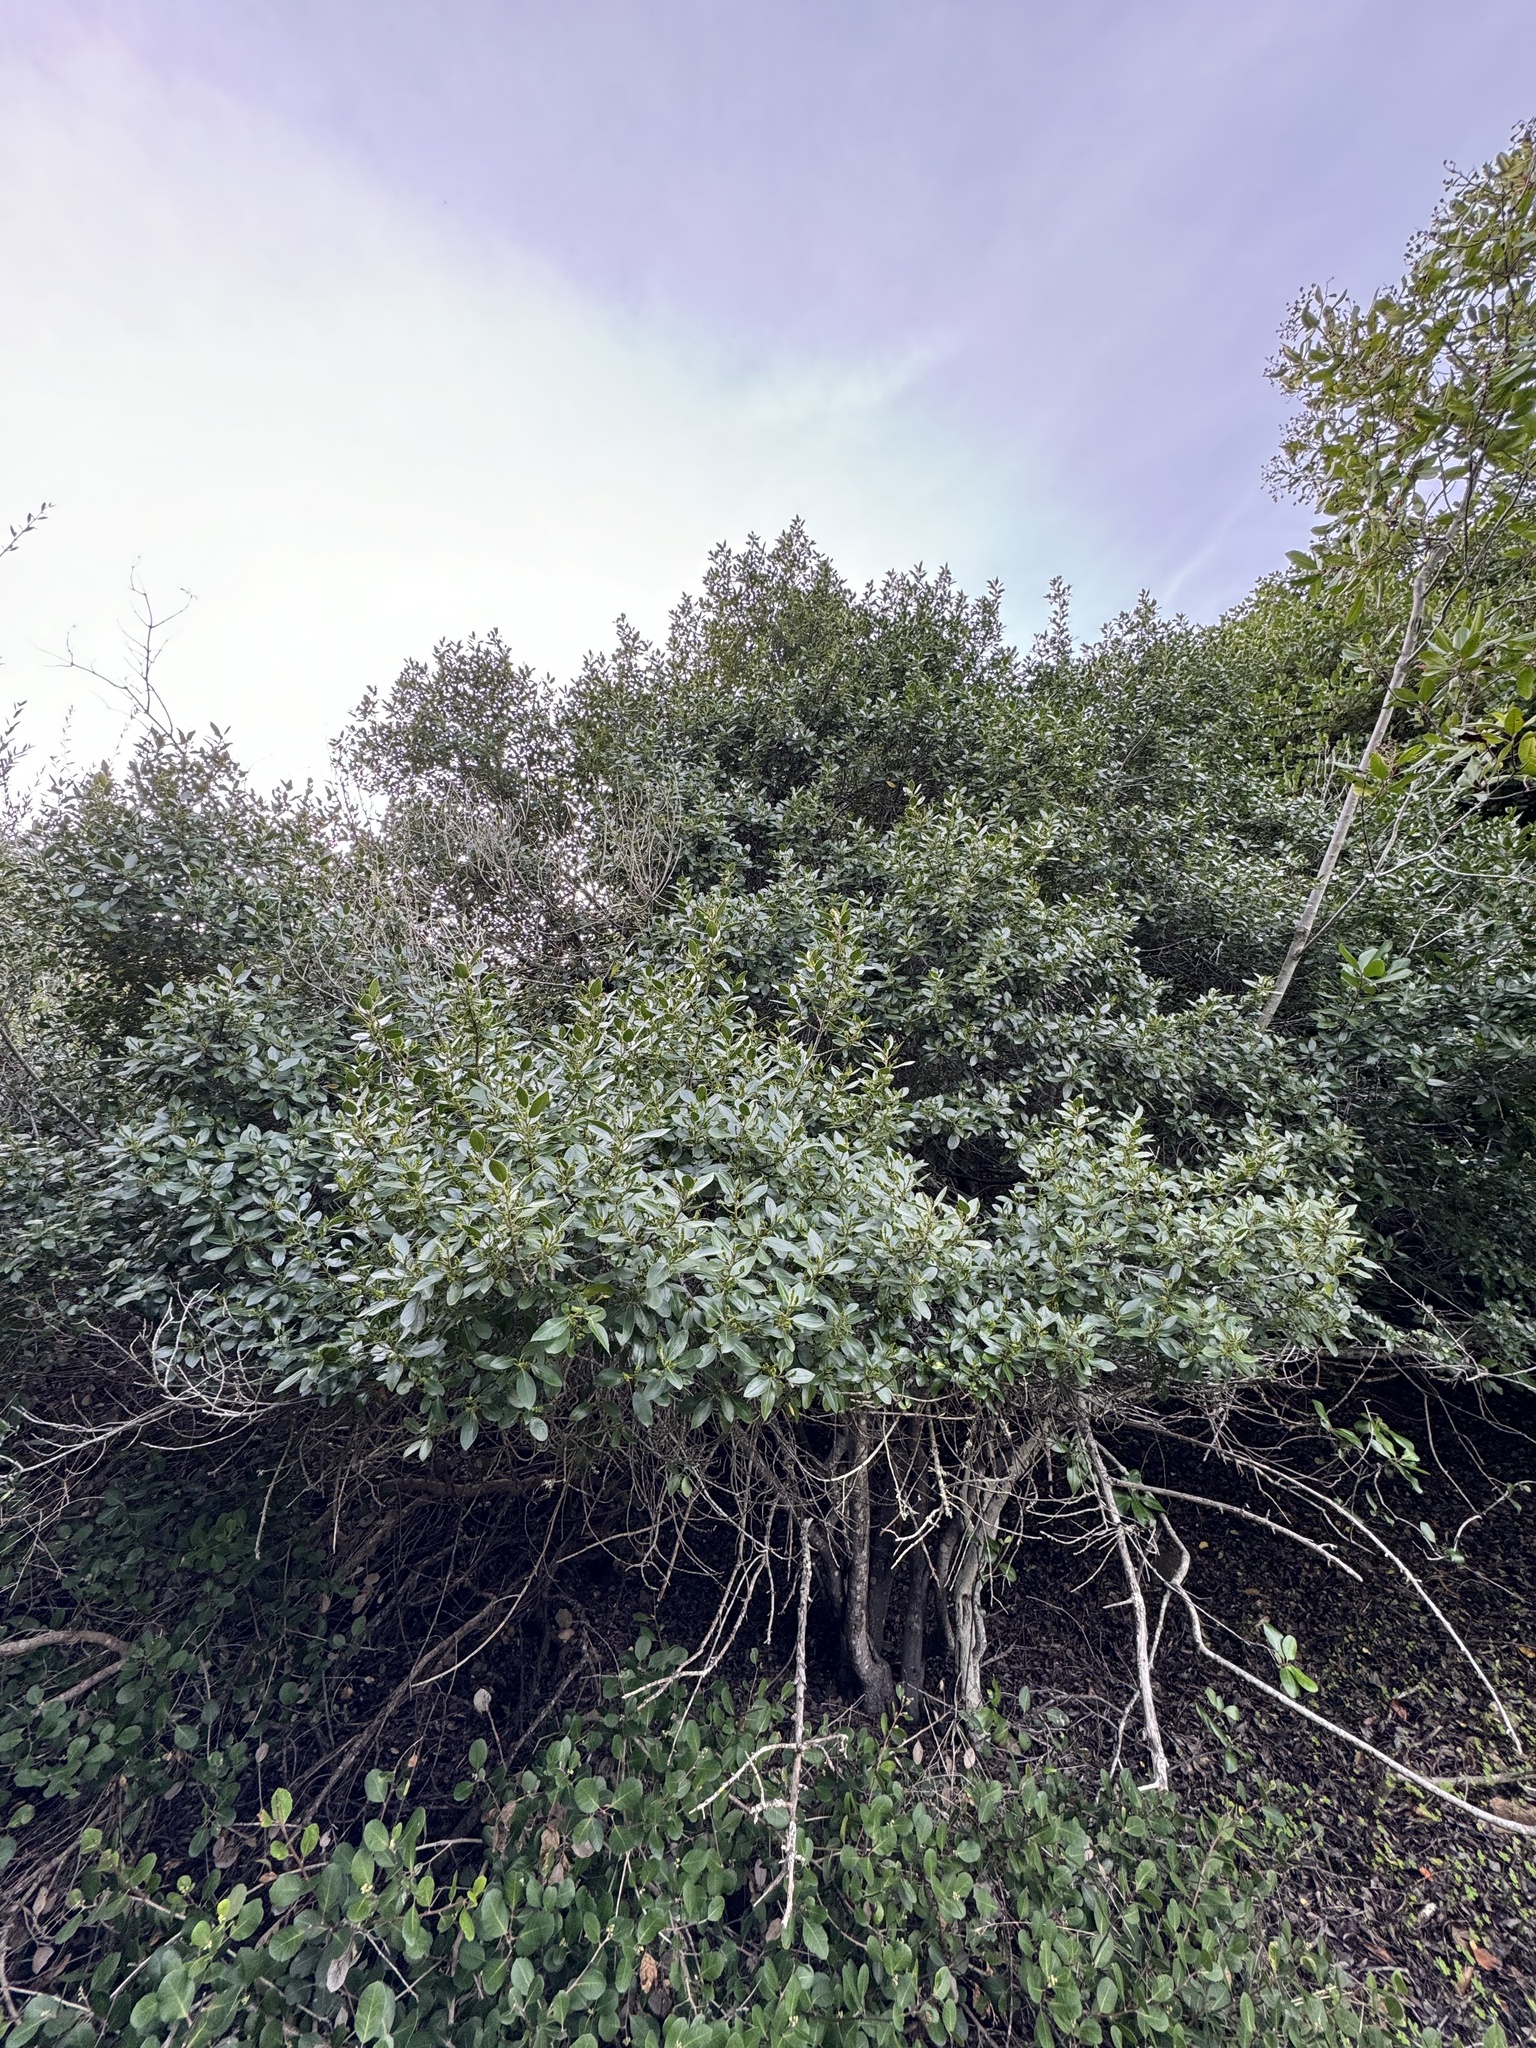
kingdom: Plantae
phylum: Tracheophyta
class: Magnoliopsida
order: Rosales
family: Rhamnaceae
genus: Endotropis
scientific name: Endotropis crocea
